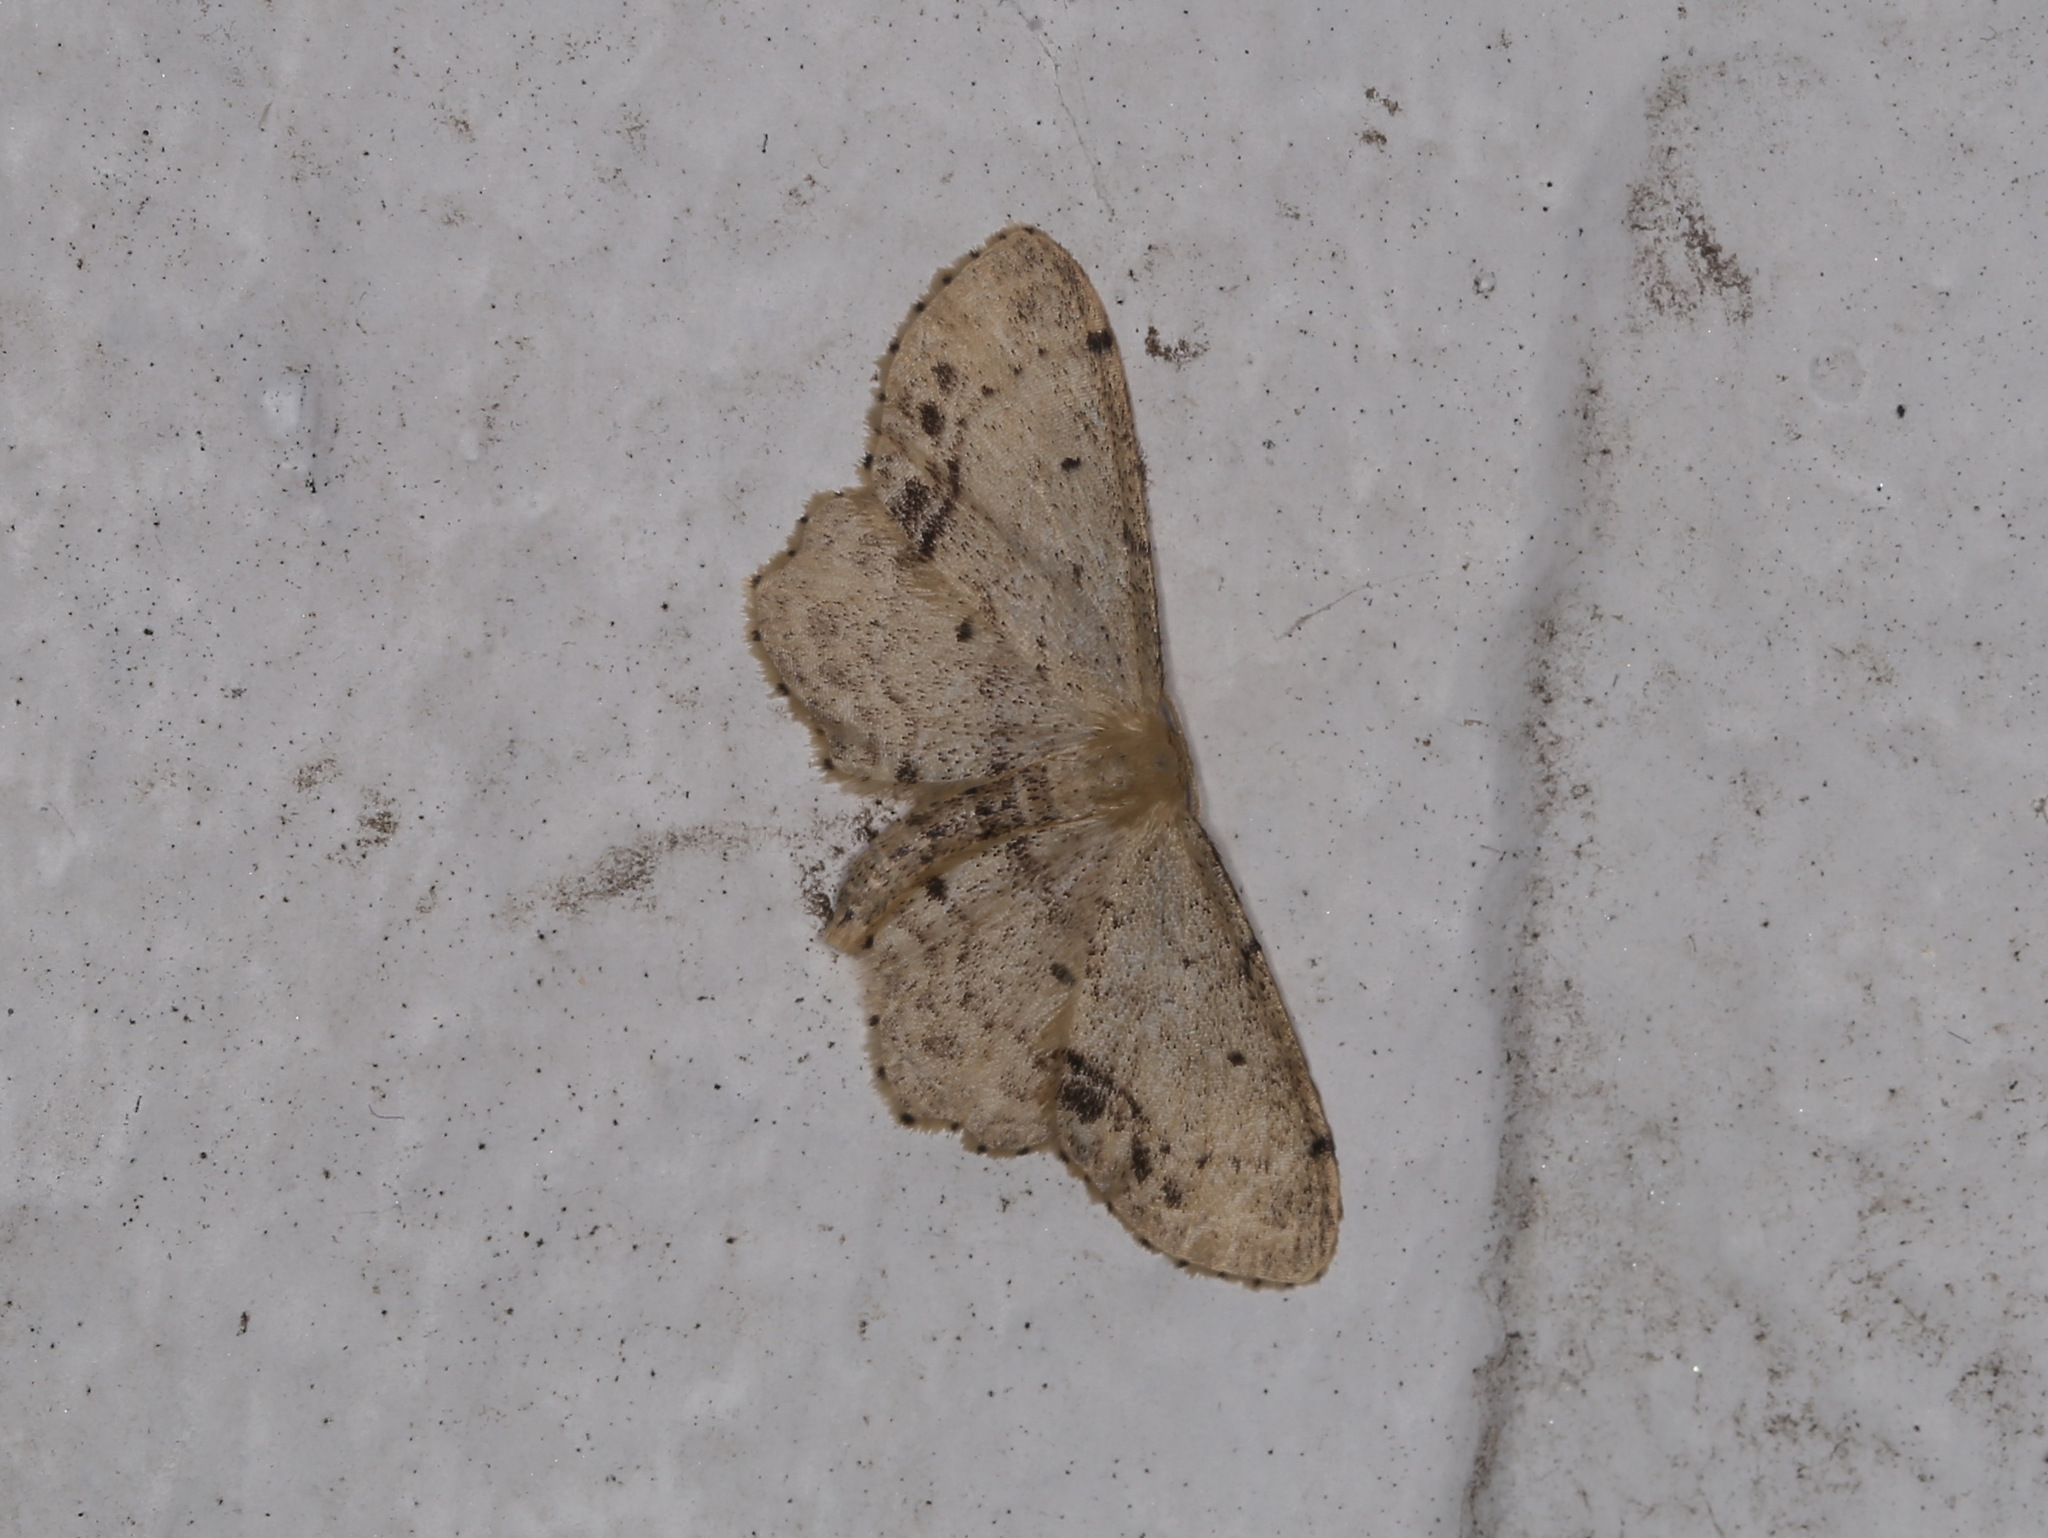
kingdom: Animalia
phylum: Arthropoda
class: Insecta
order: Lepidoptera
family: Geometridae
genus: Idaea
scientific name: Idaea dimidiata
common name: Single-dotted wave
